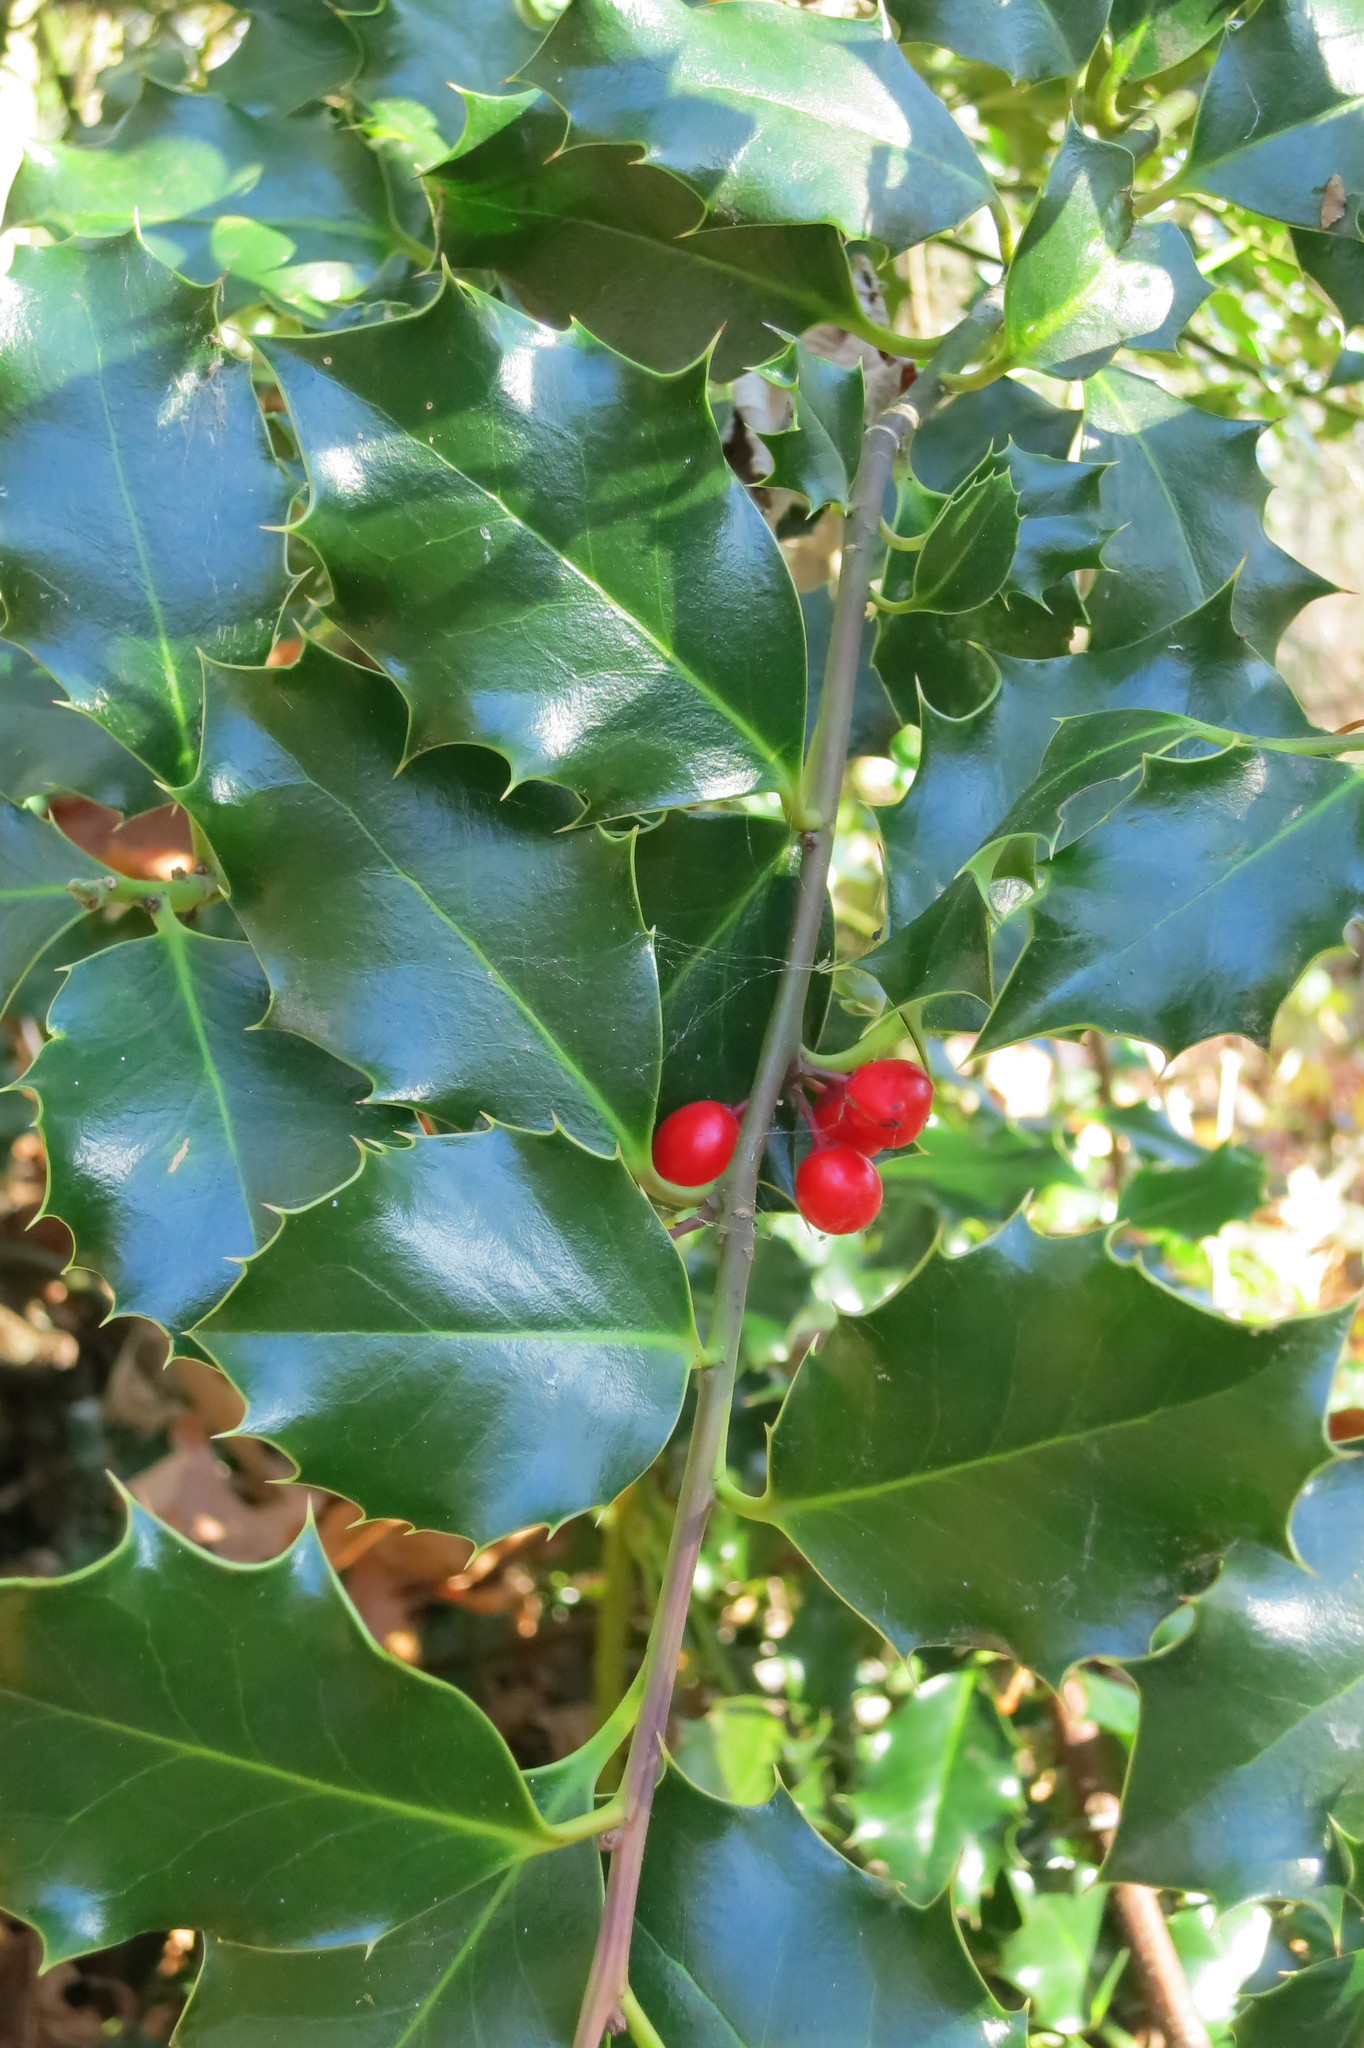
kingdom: Plantae
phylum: Tracheophyta
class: Magnoliopsida
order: Aquifoliales
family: Aquifoliaceae
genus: Ilex
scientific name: Ilex aquifolium
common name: English holly
